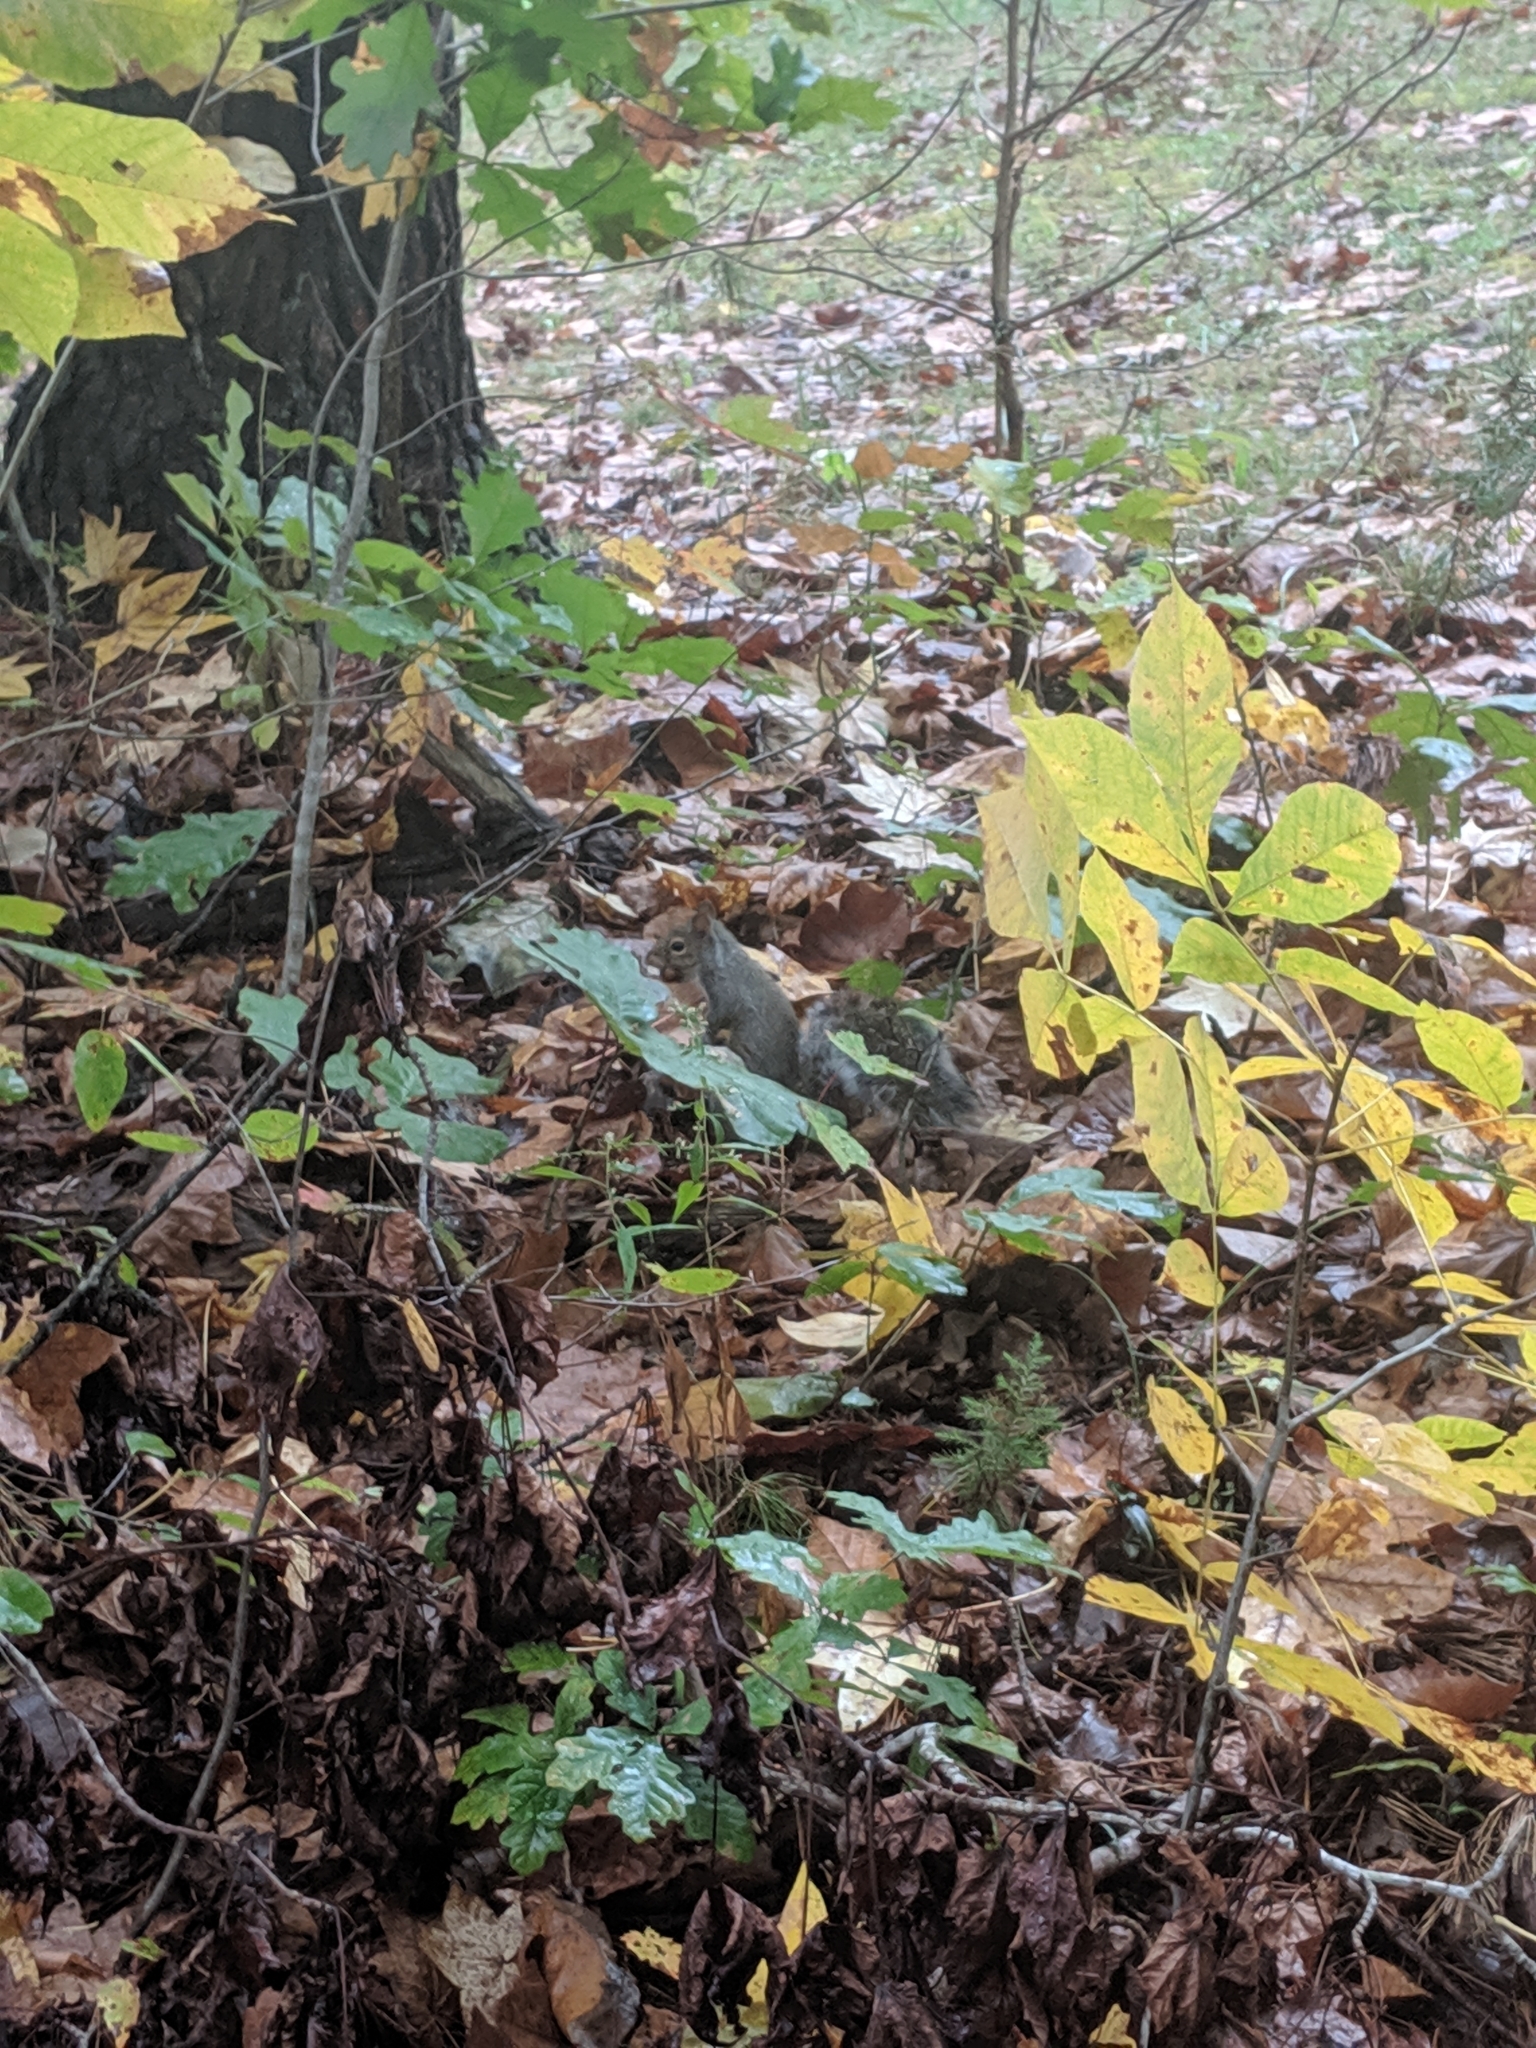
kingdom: Animalia
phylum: Chordata
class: Mammalia
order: Rodentia
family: Sciuridae
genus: Sciurus
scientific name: Sciurus carolinensis
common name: Eastern gray squirrel
